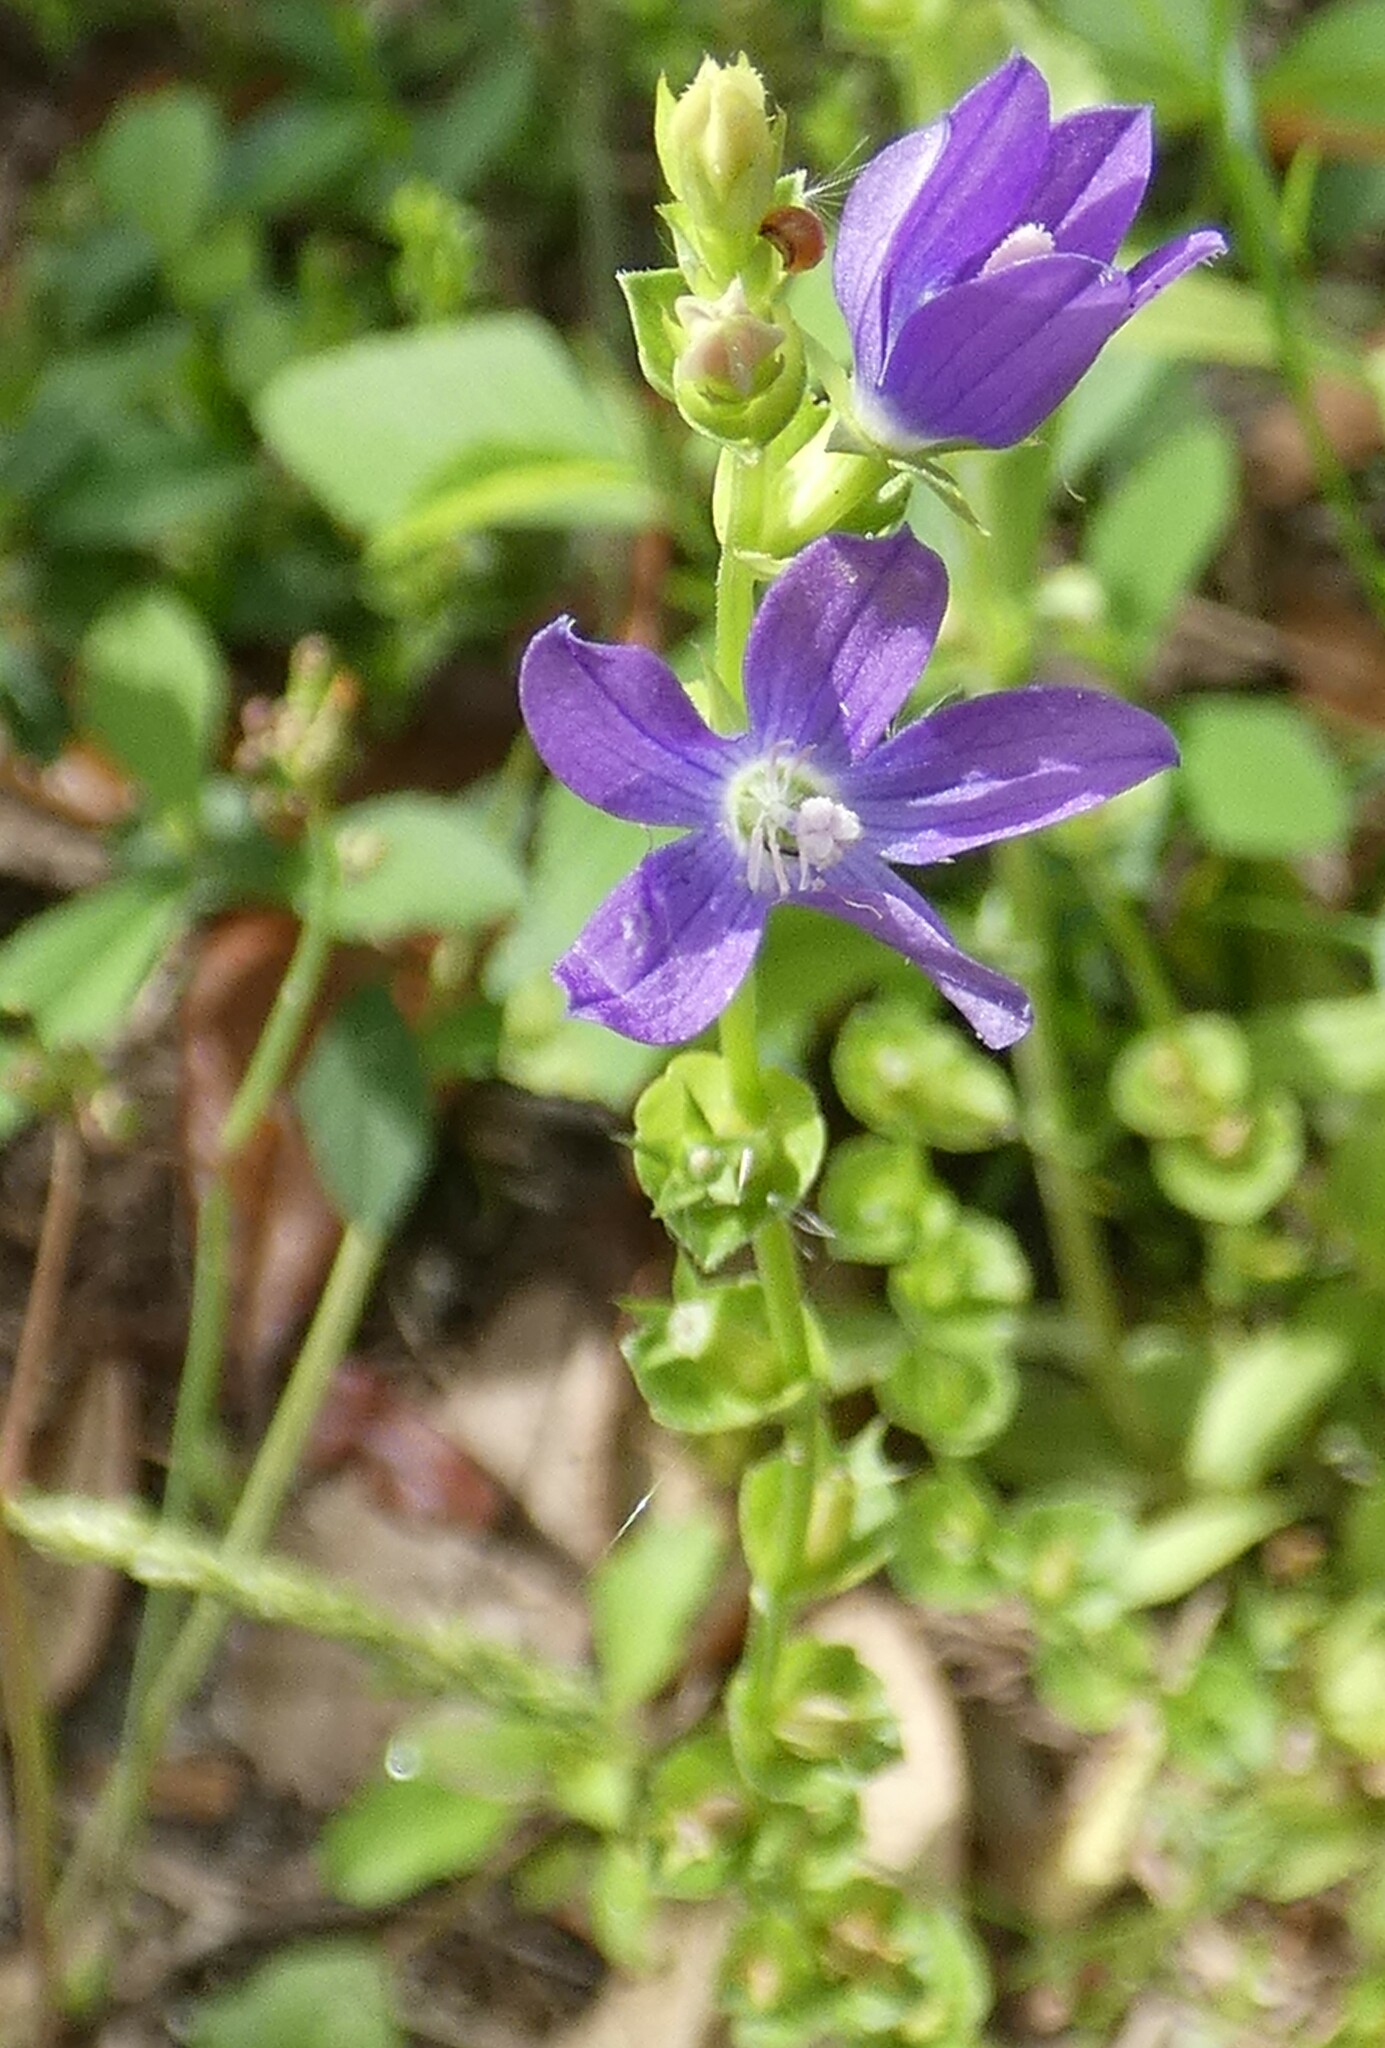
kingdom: Plantae
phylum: Tracheophyta
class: Magnoliopsida
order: Asterales
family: Campanulaceae
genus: Triodanis
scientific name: Triodanis perfoliata
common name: Clasping venus' looking-glass
